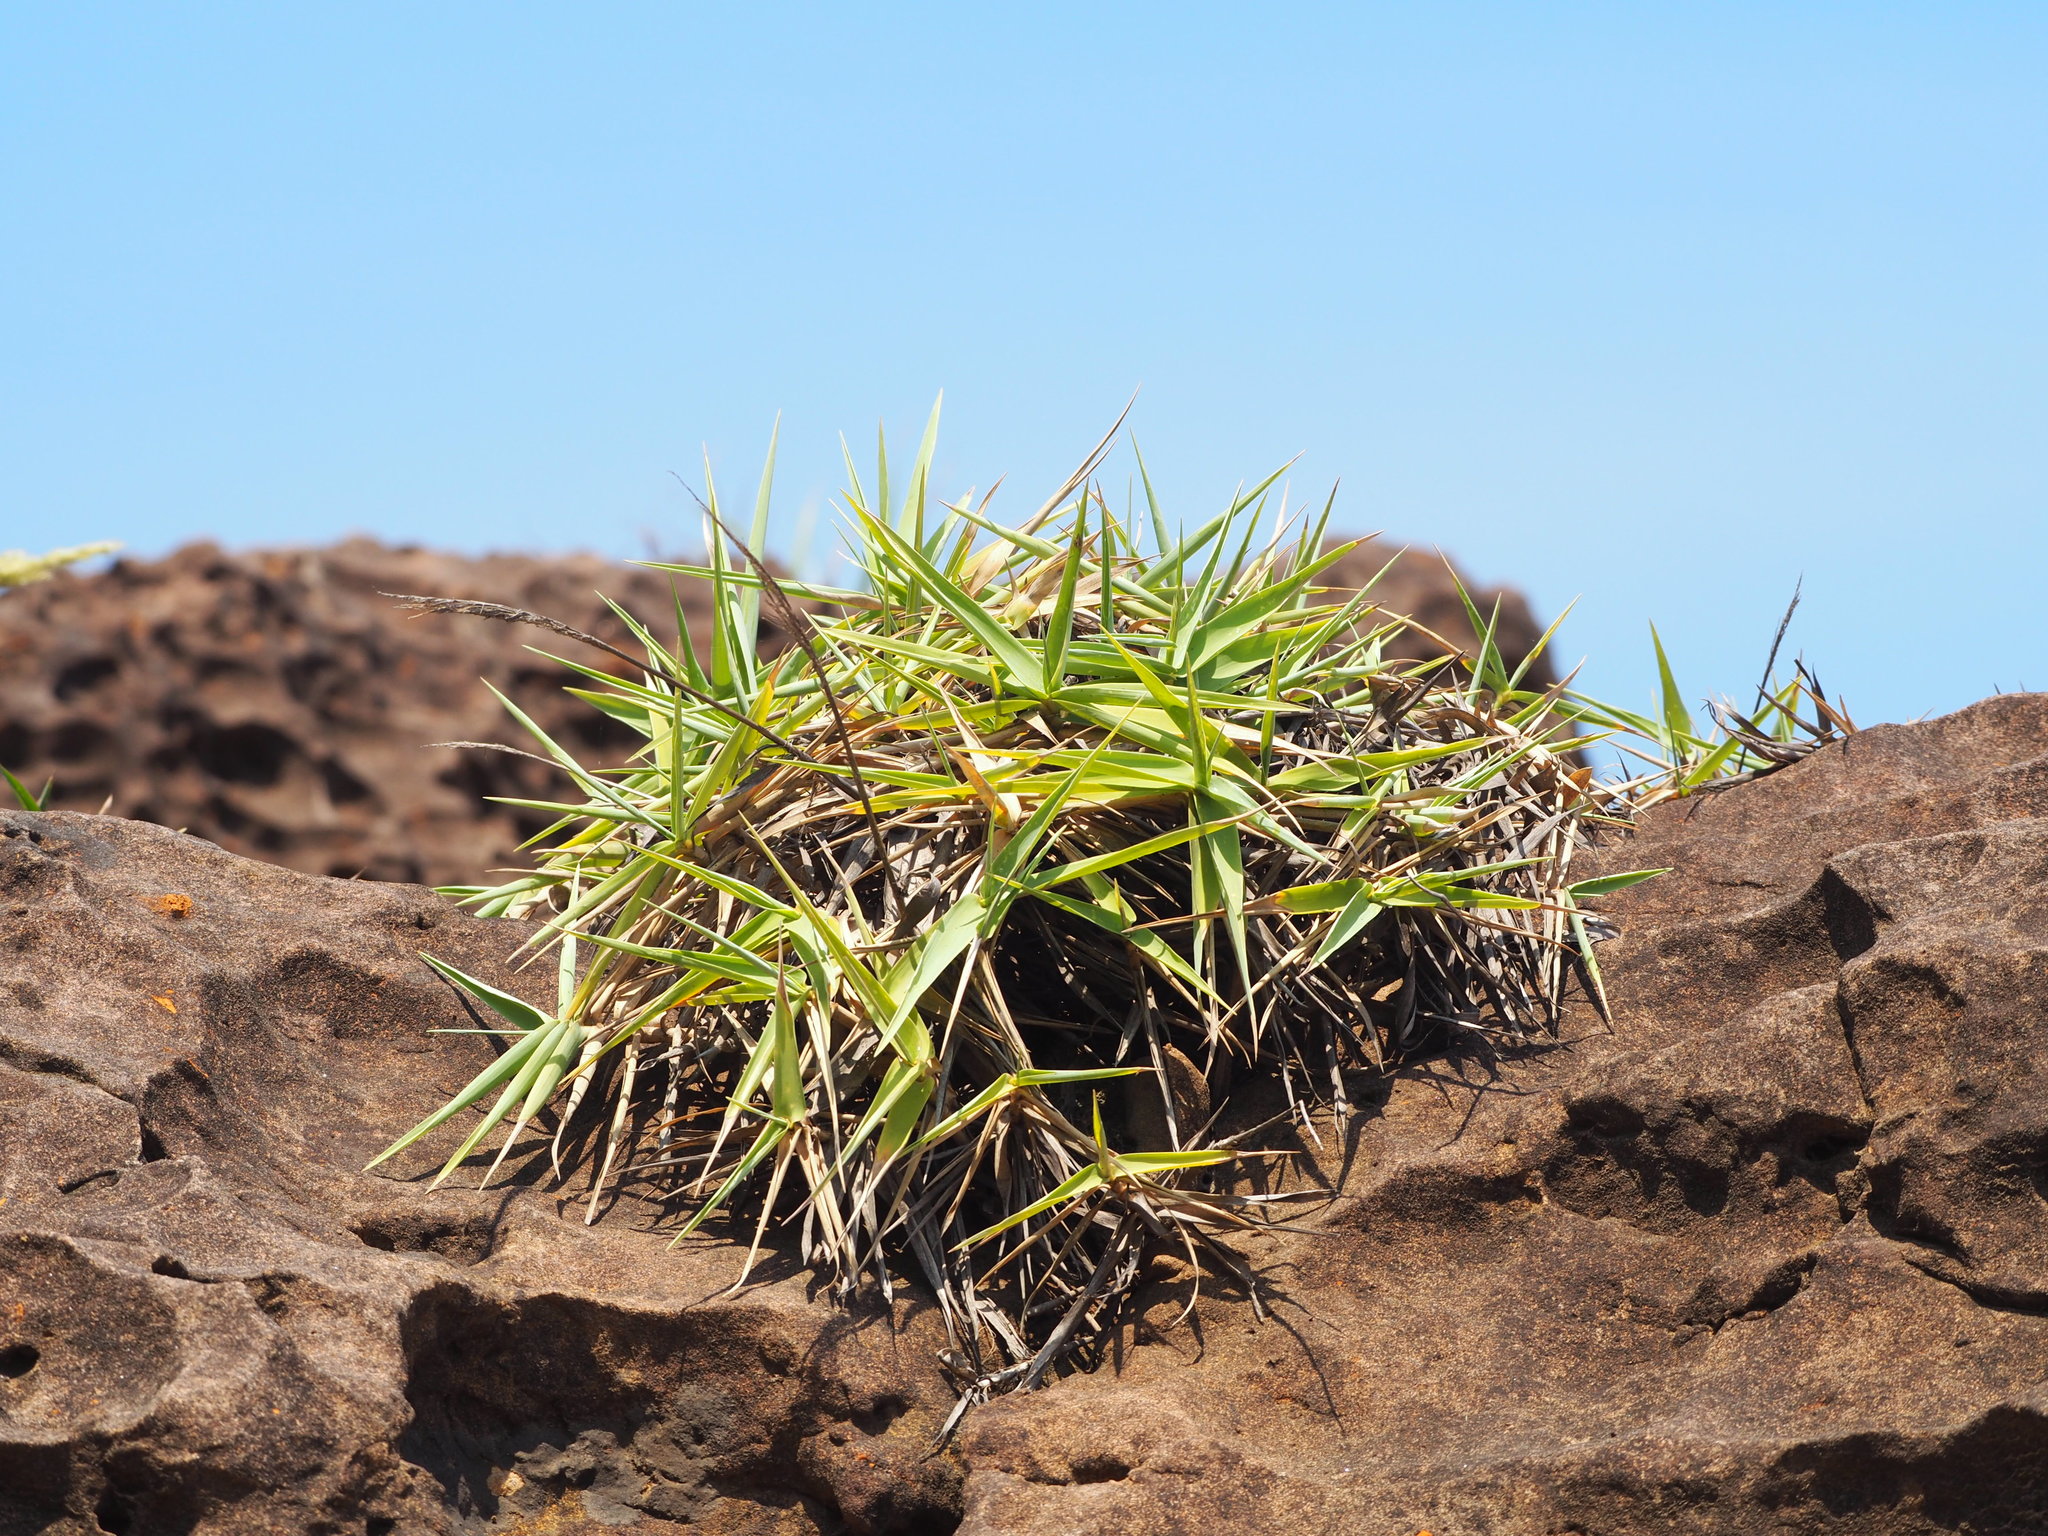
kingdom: Plantae
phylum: Tracheophyta
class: Liliopsida
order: Poales
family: Poaceae
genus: Arundo
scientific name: Arundo formosana
